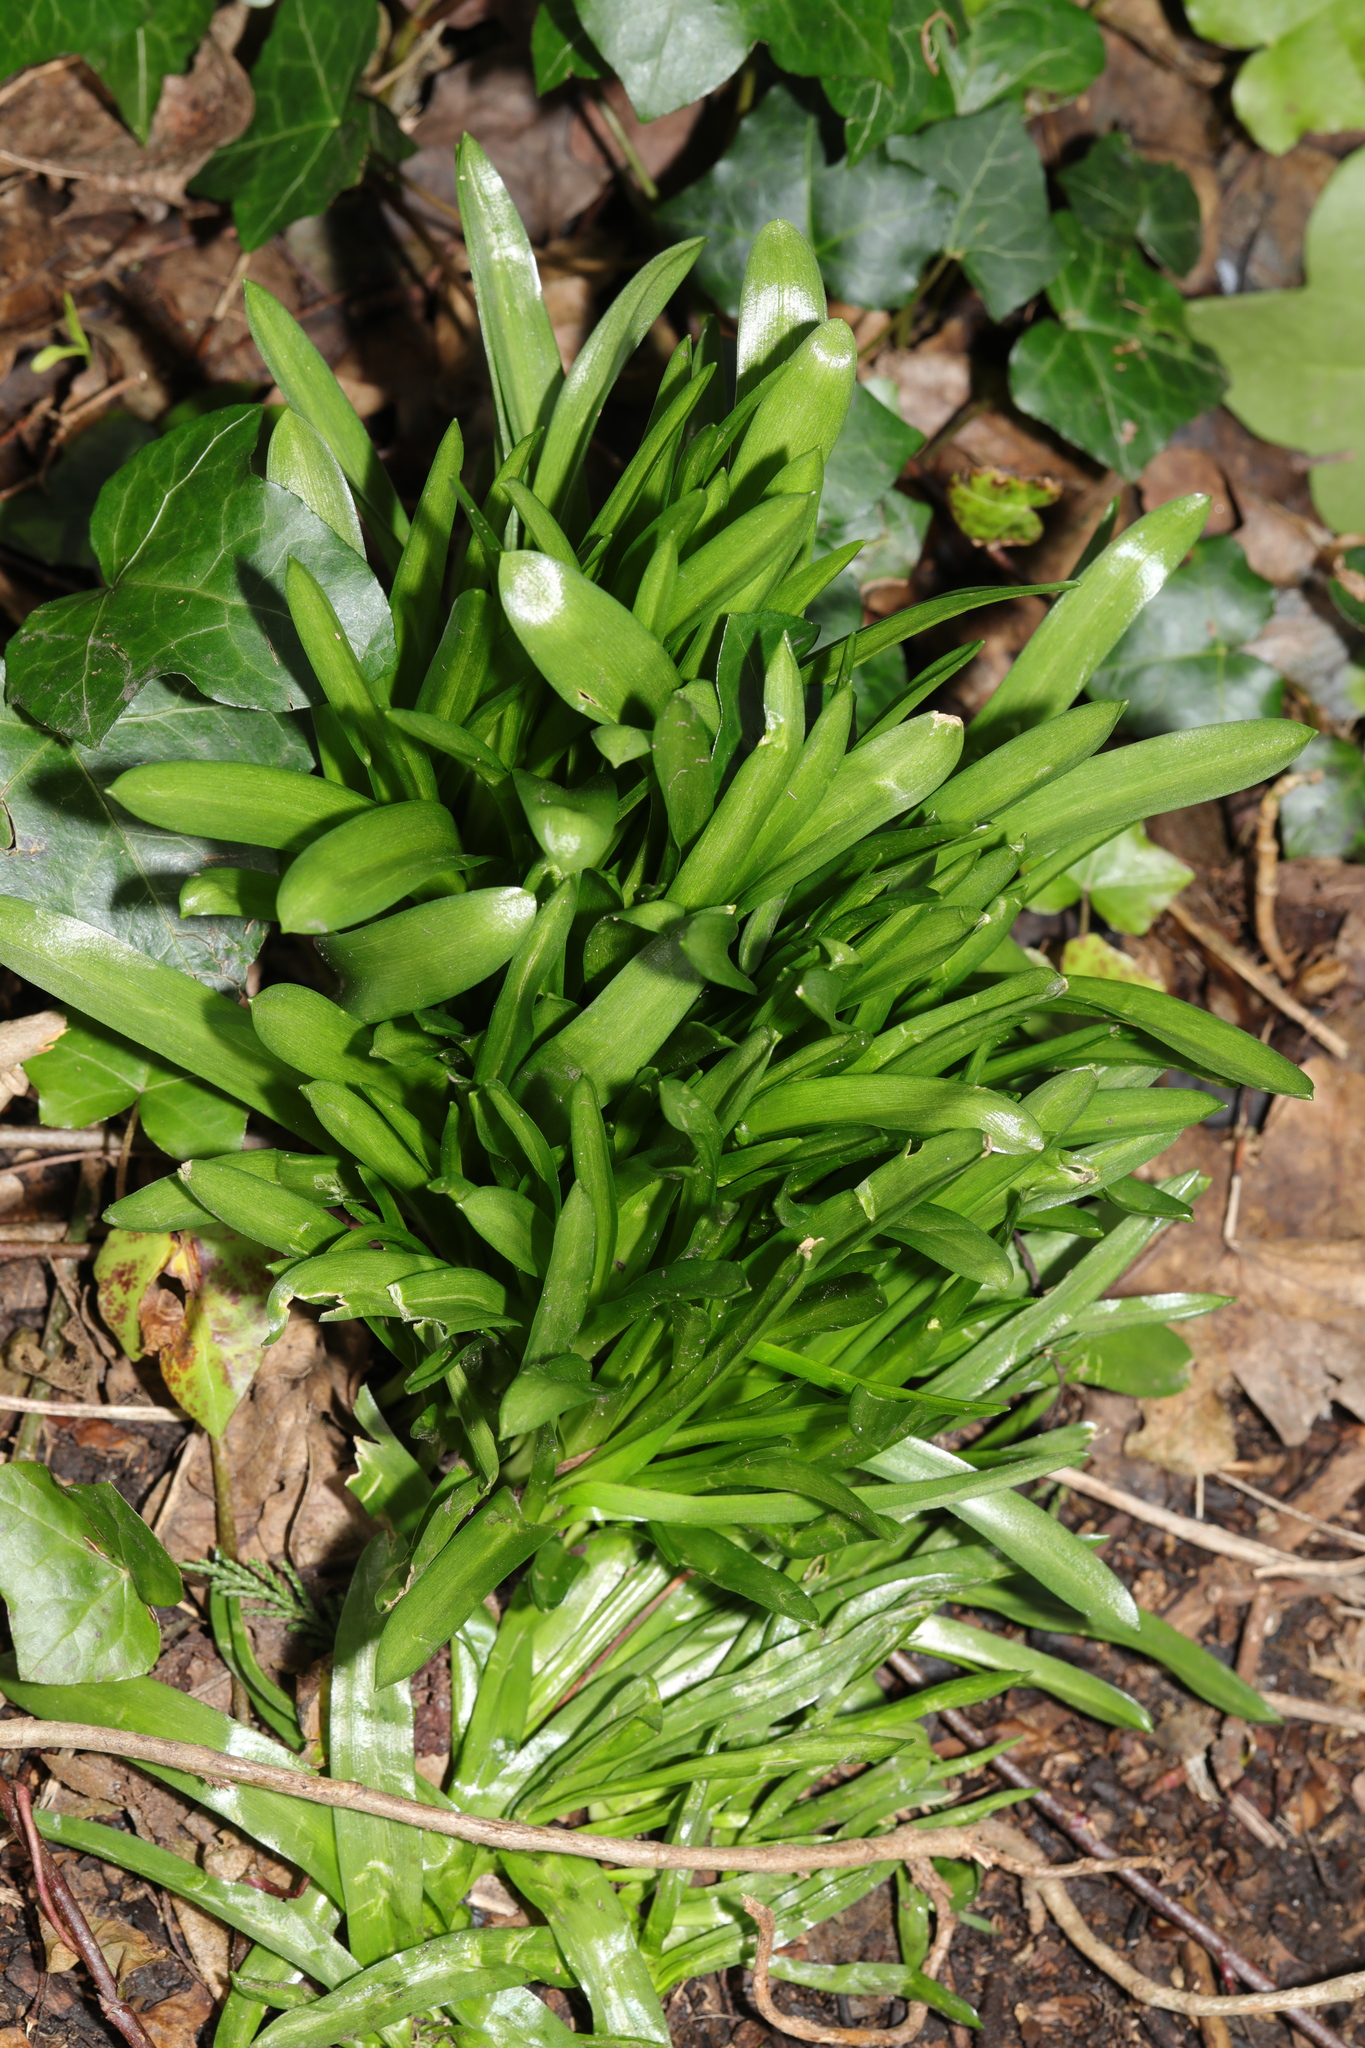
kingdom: Plantae
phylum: Tracheophyta
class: Liliopsida
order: Asparagales
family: Asparagaceae
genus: Hyacinthoides
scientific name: Hyacinthoides massartiana
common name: Hyacinthoides
